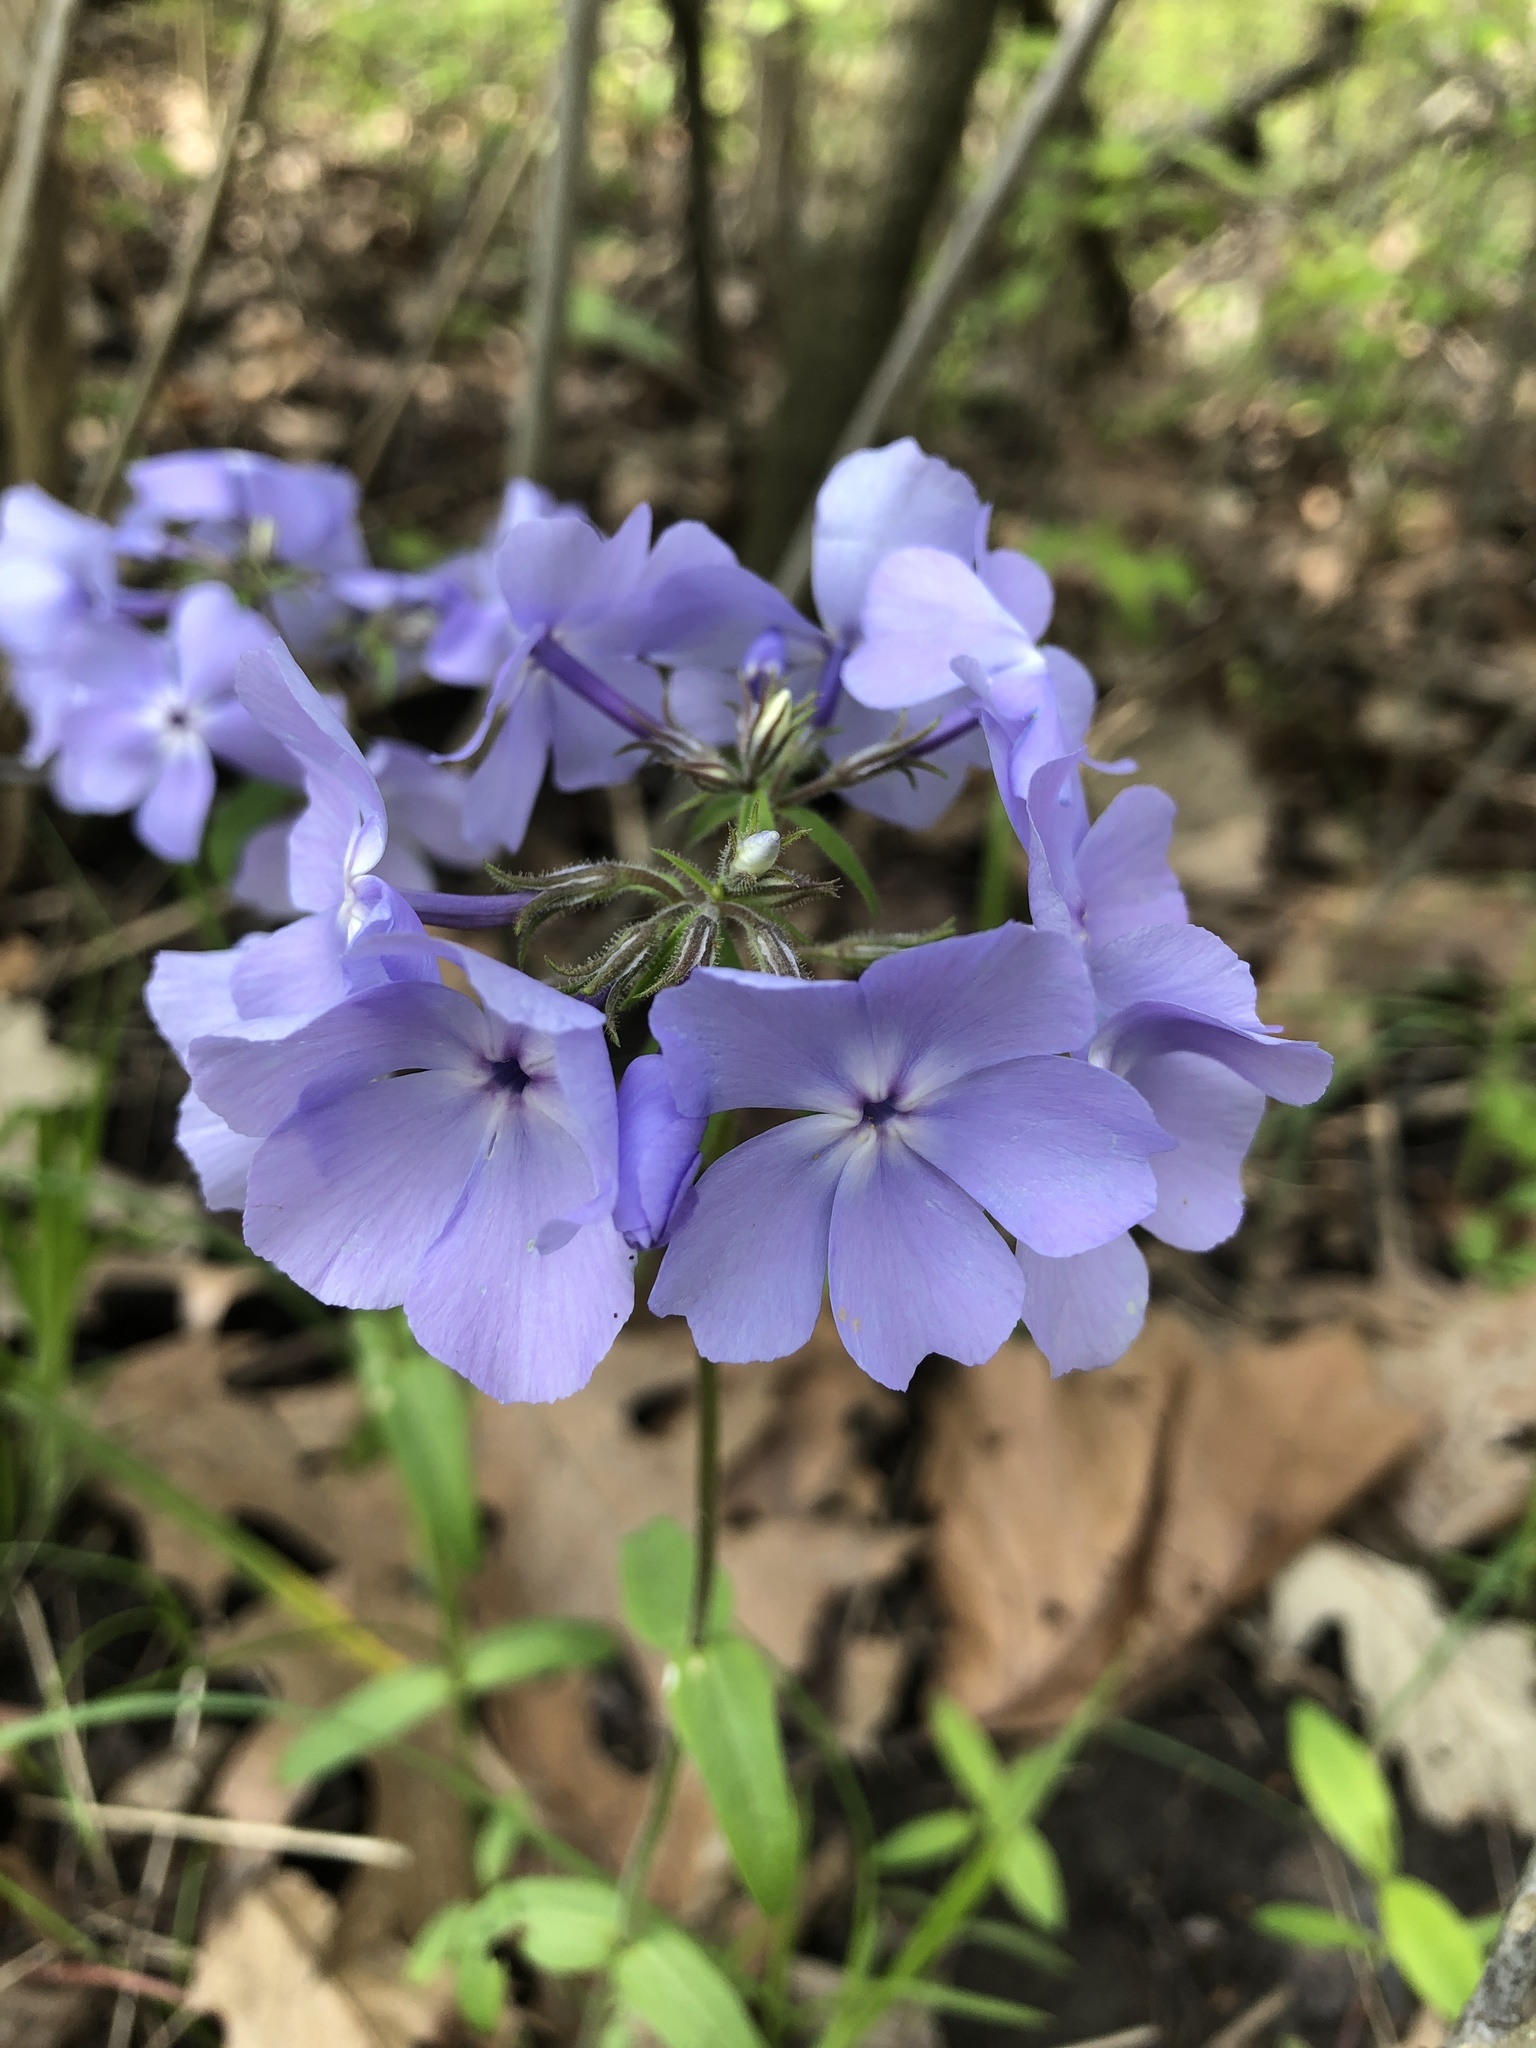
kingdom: Plantae
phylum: Tracheophyta
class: Magnoliopsida
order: Ericales
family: Polemoniaceae
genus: Phlox
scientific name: Phlox divaricata
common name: Blue phlox
